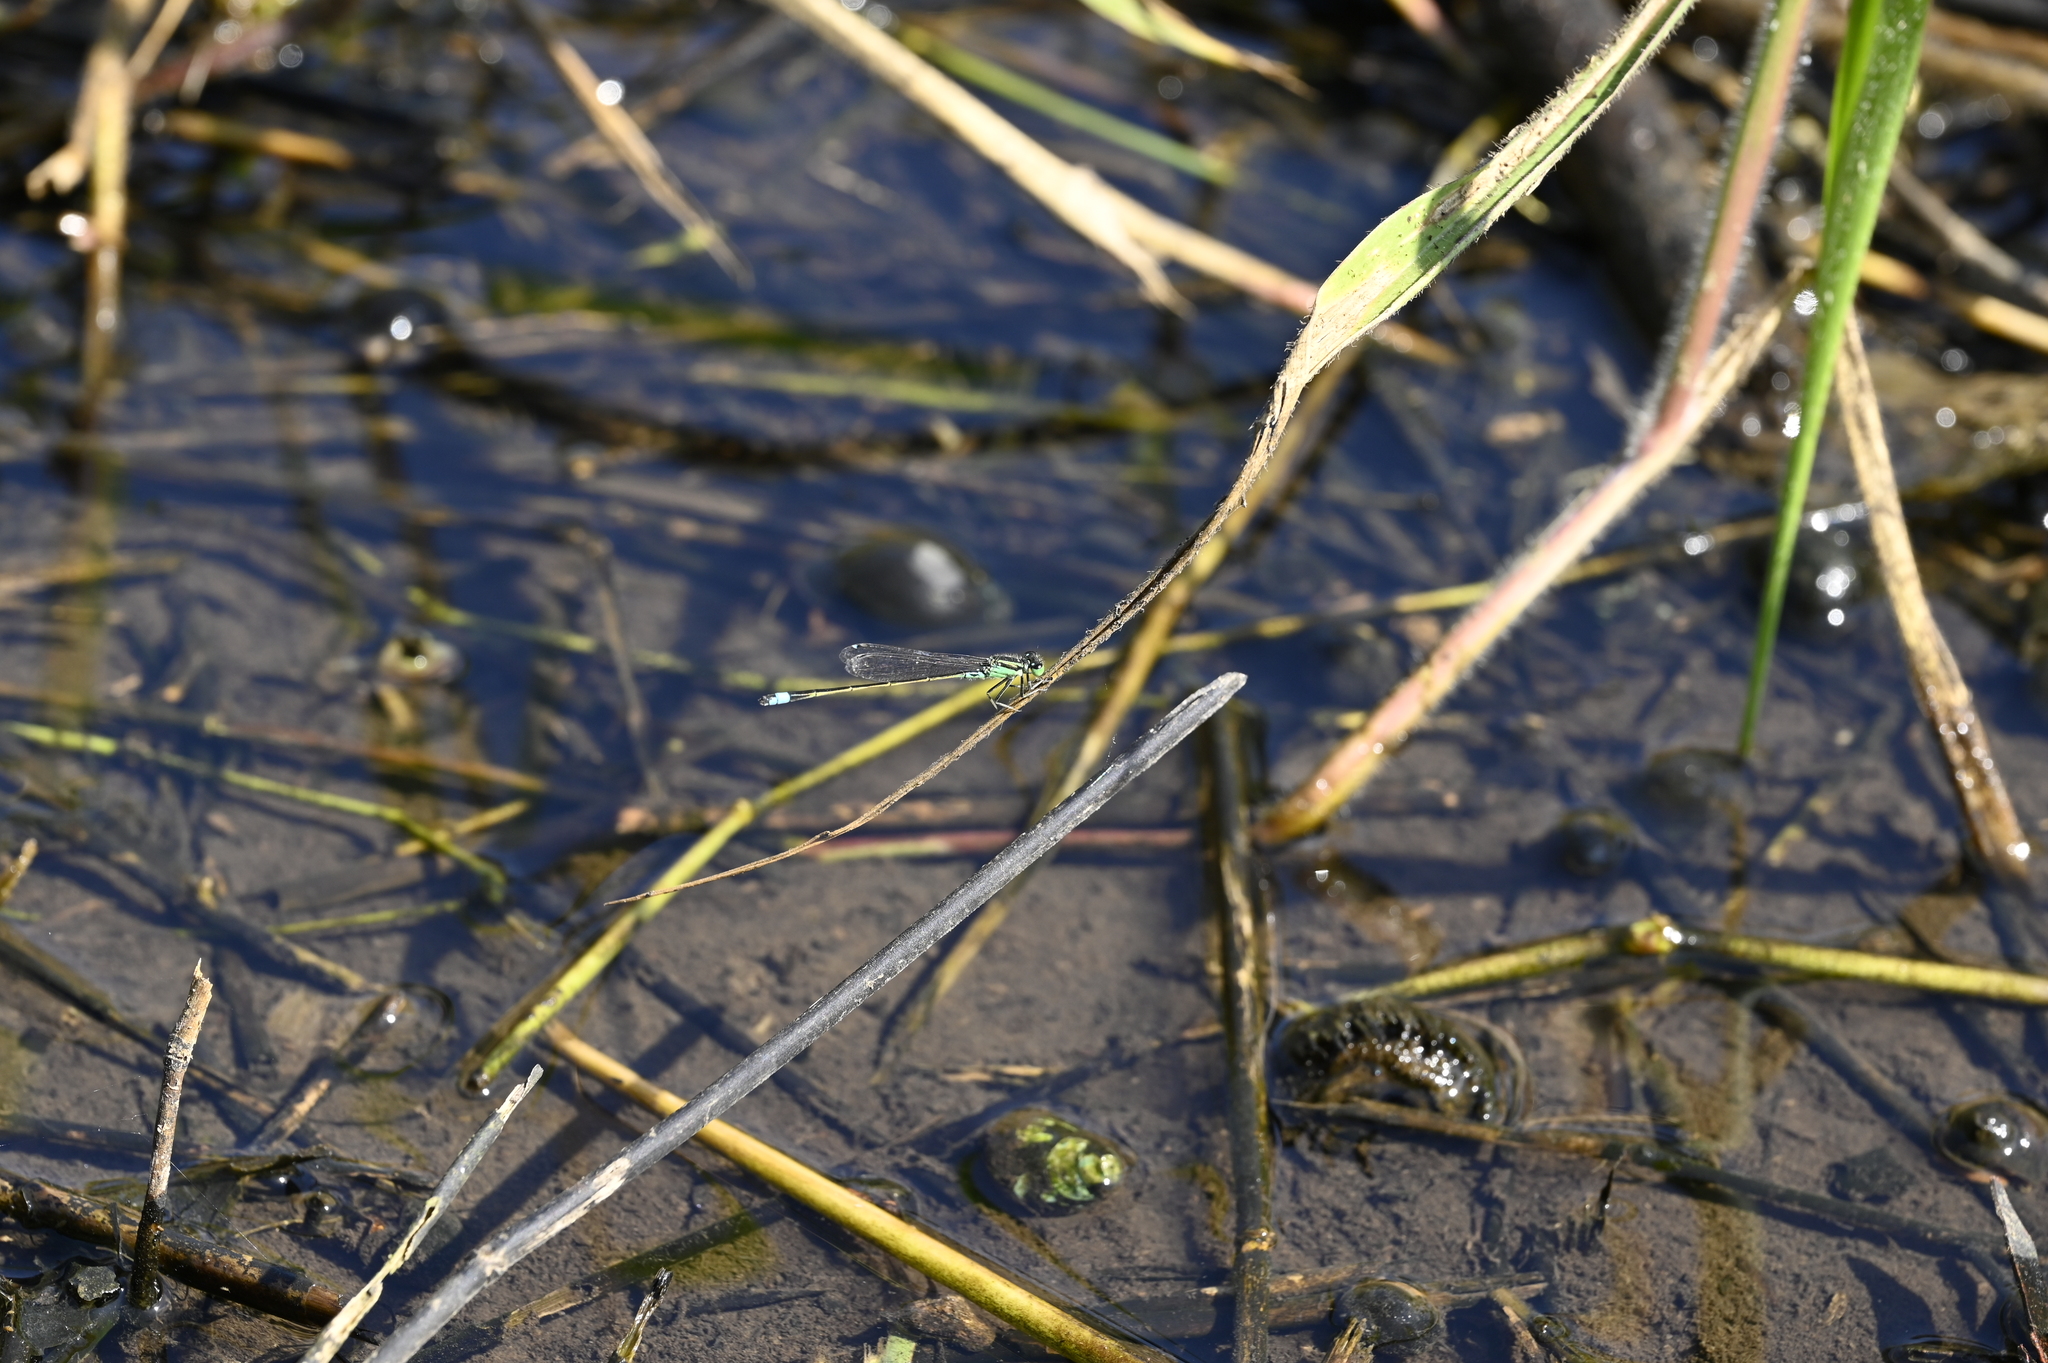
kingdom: Animalia
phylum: Arthropoda
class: Insecta
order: Odonata
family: Coenagrionidae
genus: Ischnura
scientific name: Ischnura senegalensis
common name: Tropical bluetail
